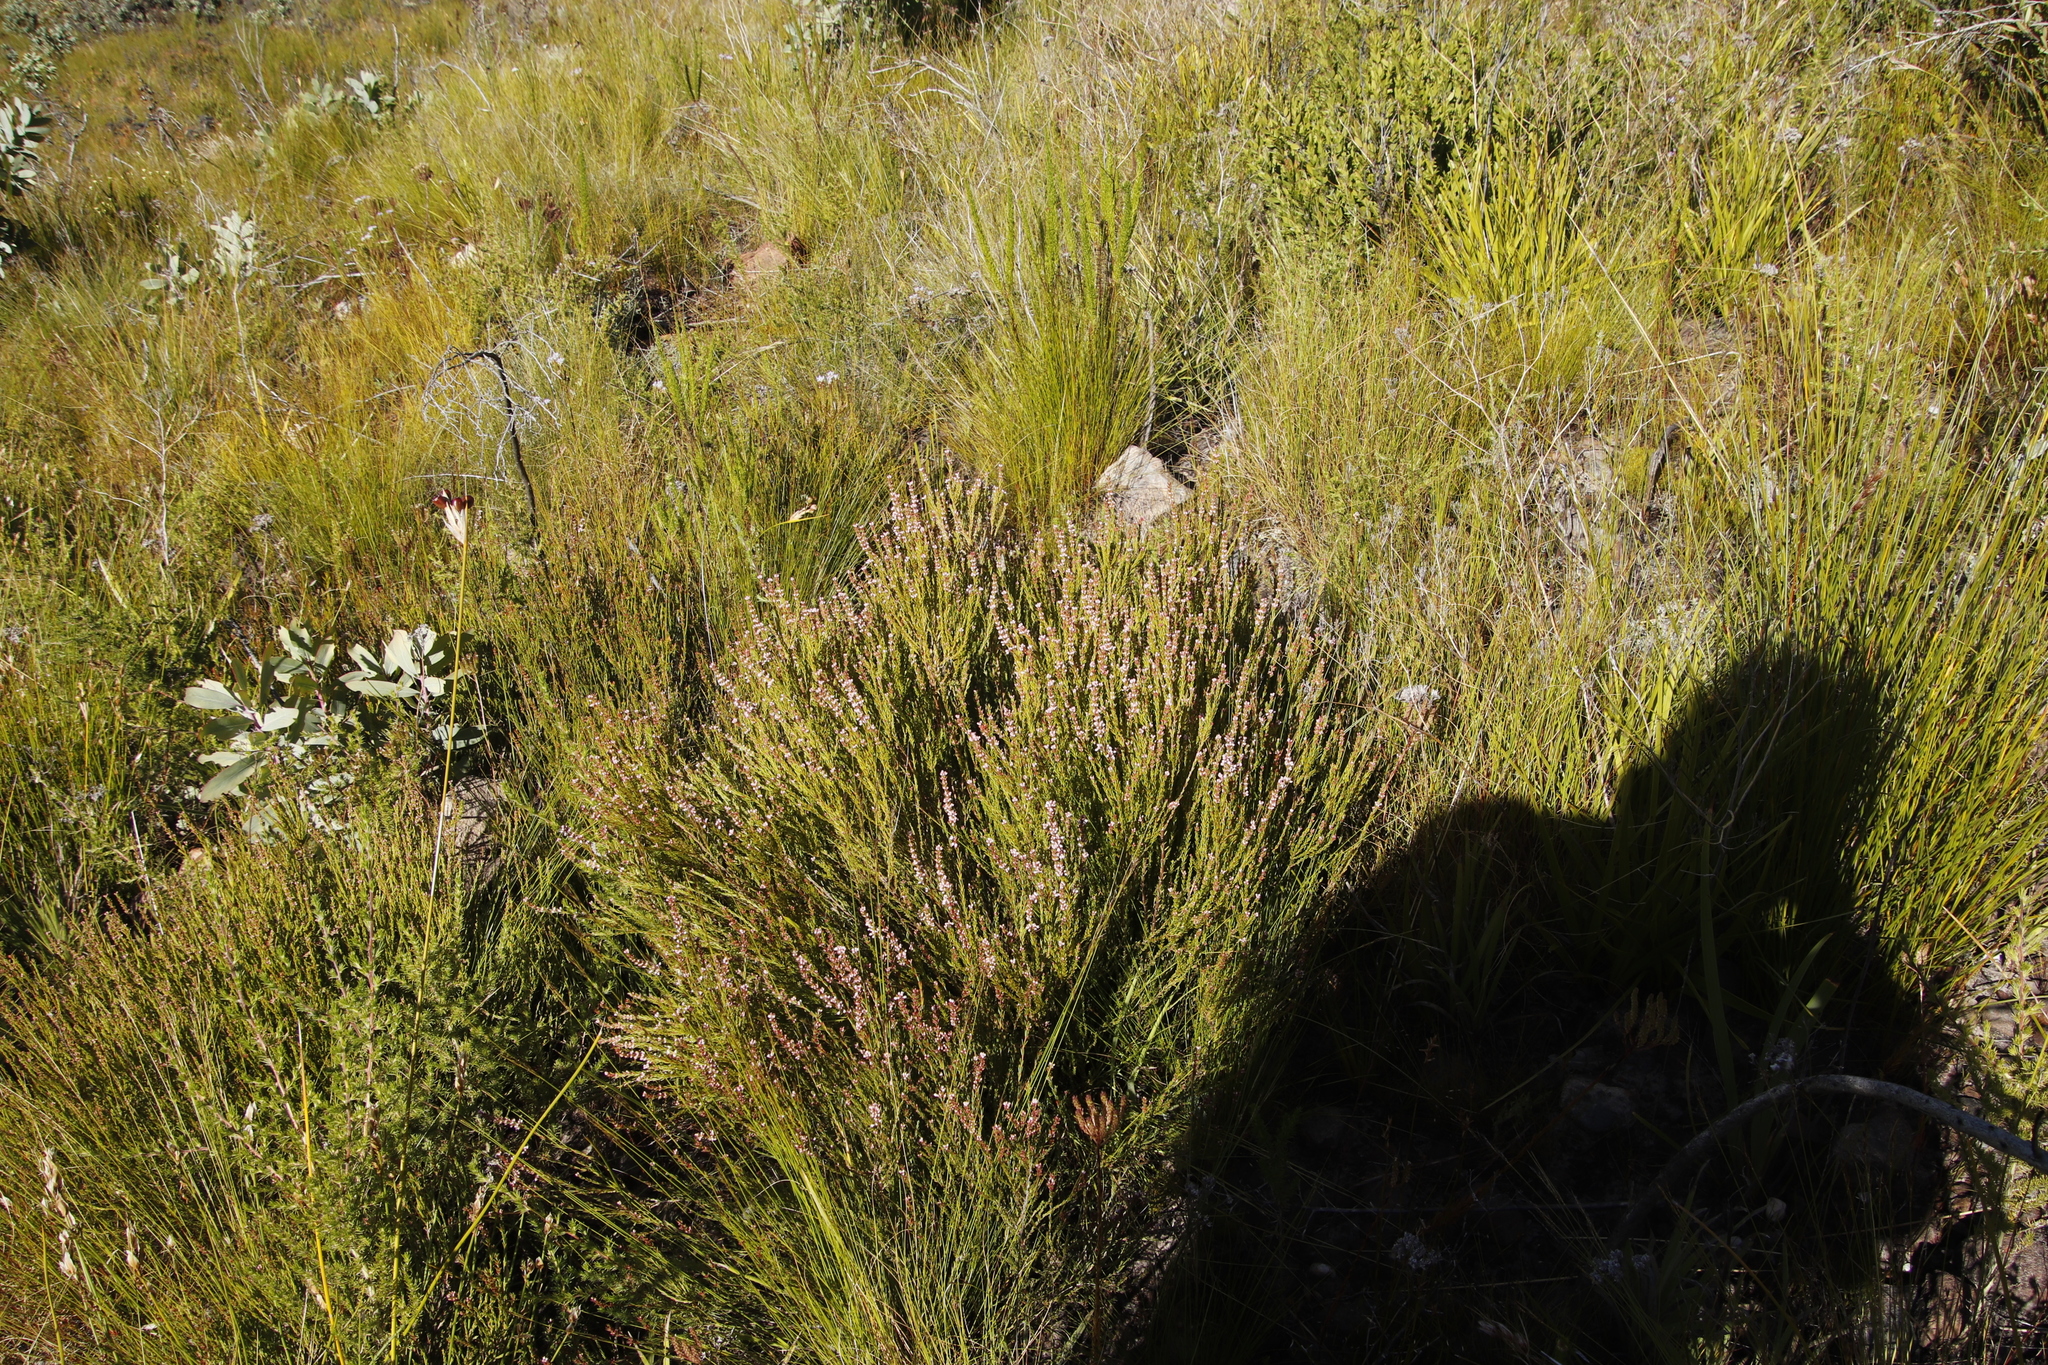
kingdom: Plantae
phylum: Tracheophyta
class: Magnoliopsida
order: Ericales
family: Ericaceae
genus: Erica
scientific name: Erica articularis
